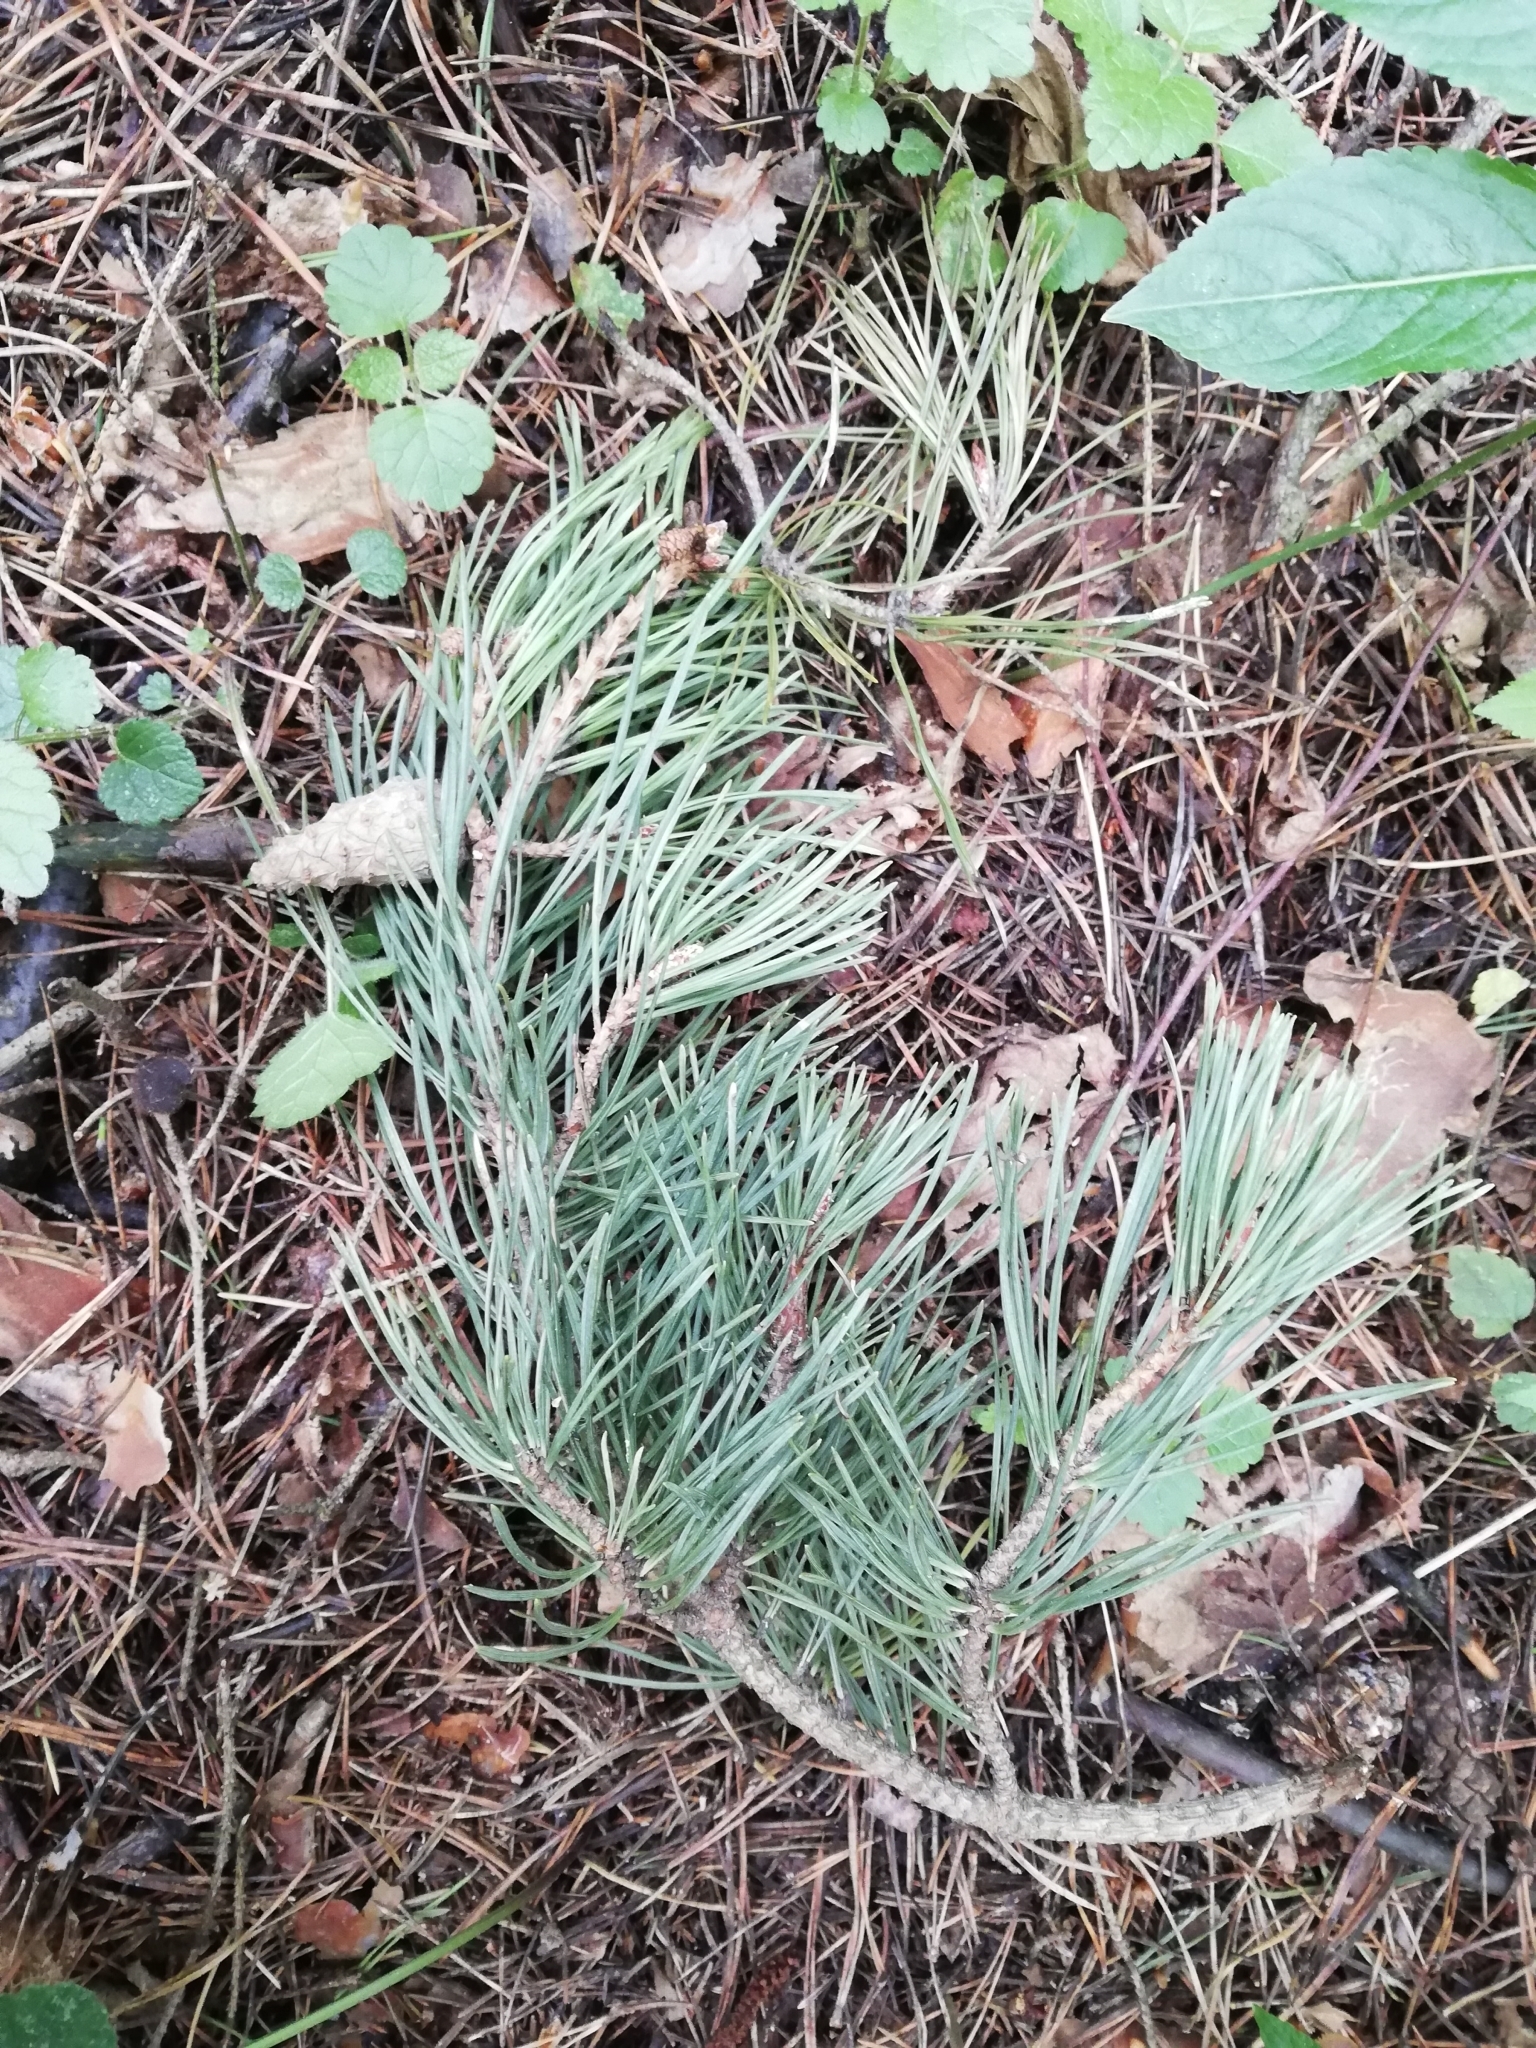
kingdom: Plantae
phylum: Tracheophyta
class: Pinopsida
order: Pinales
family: Pinaceae
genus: Pinus
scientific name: Pinus sylvestris
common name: Scots pine
